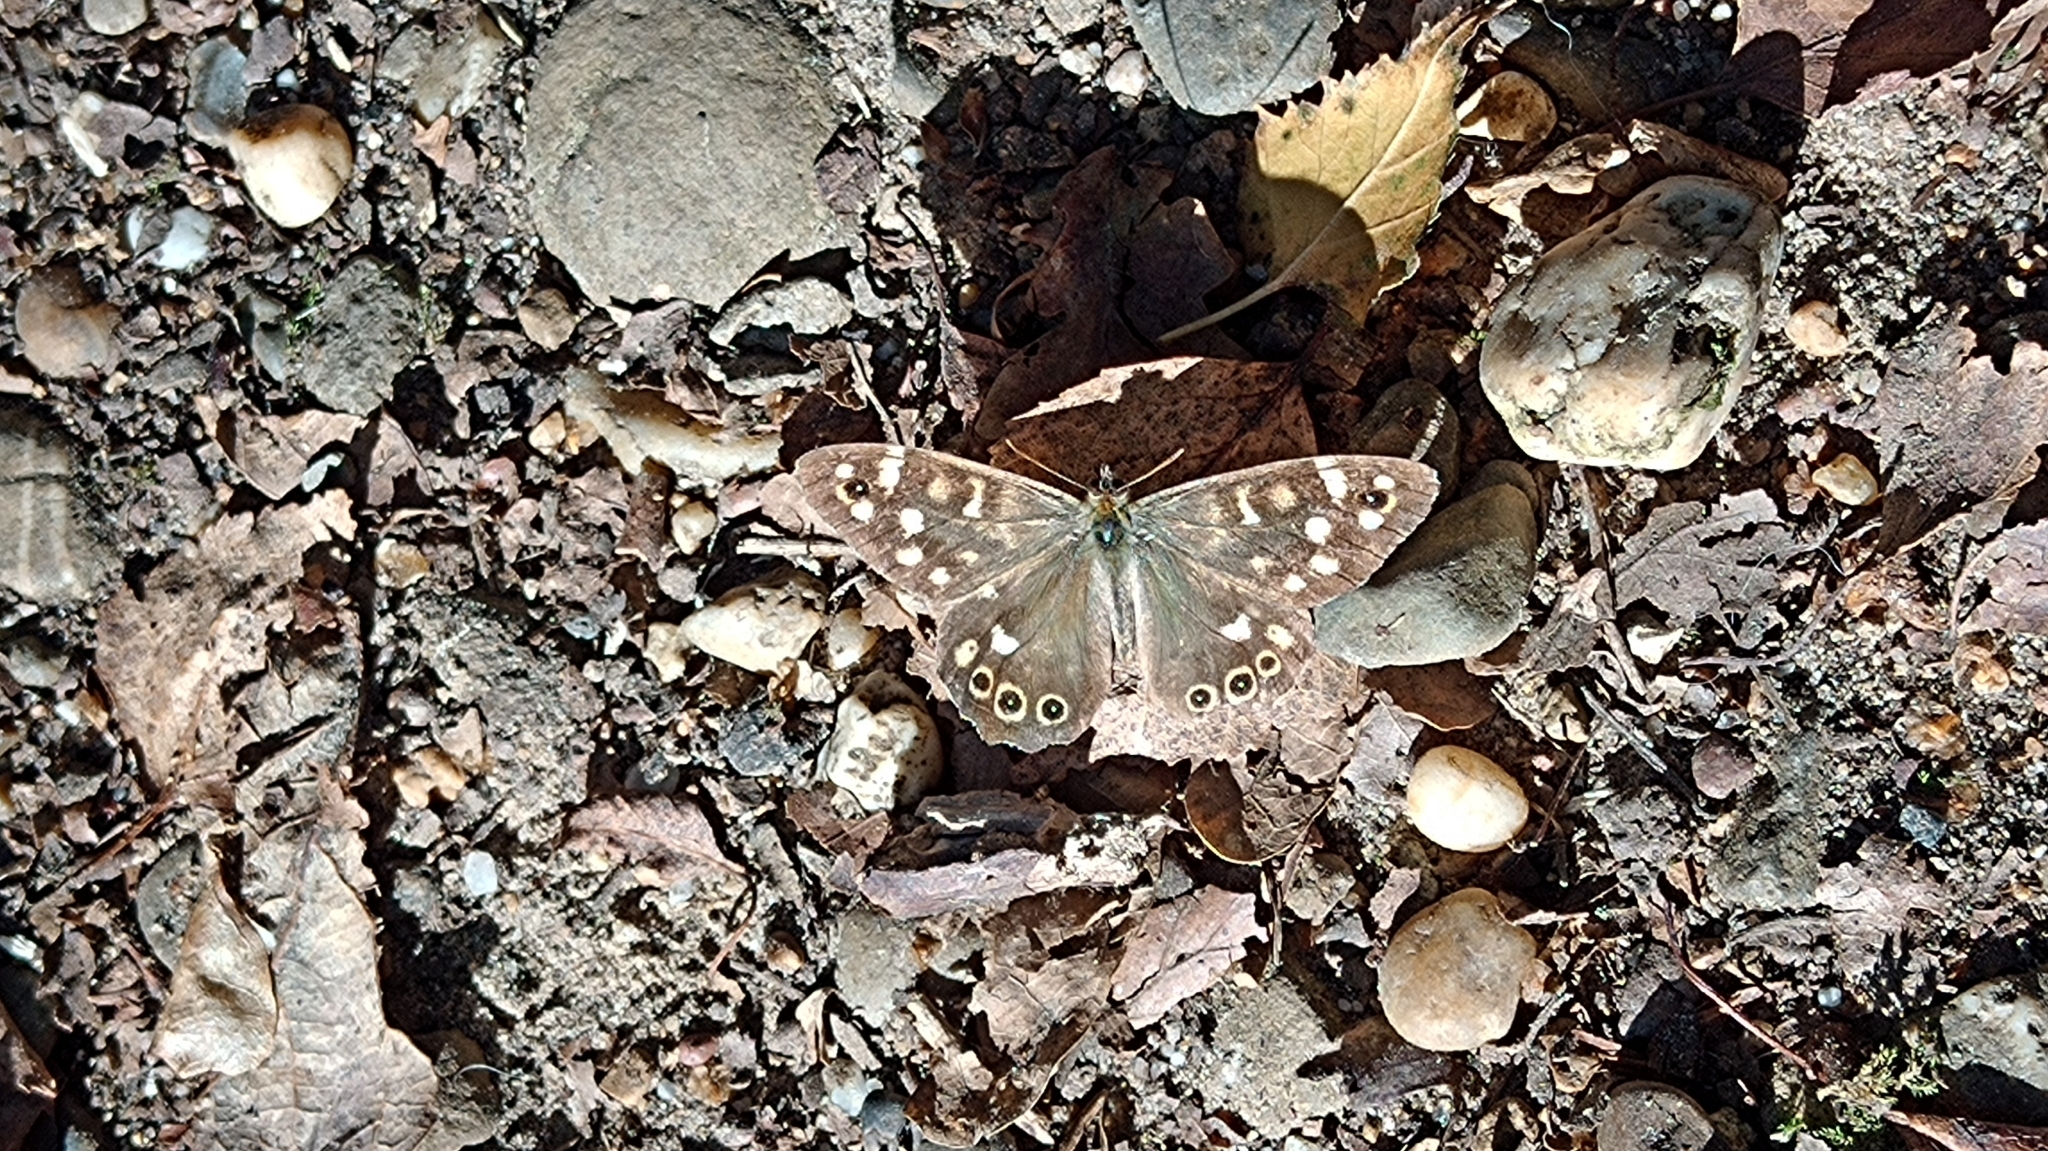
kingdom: Animalia
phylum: Arthropoda
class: Insecta
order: Lepidoptera
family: Nymphalidae
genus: Pararge
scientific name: Pararge aegeria
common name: Speckled wood
